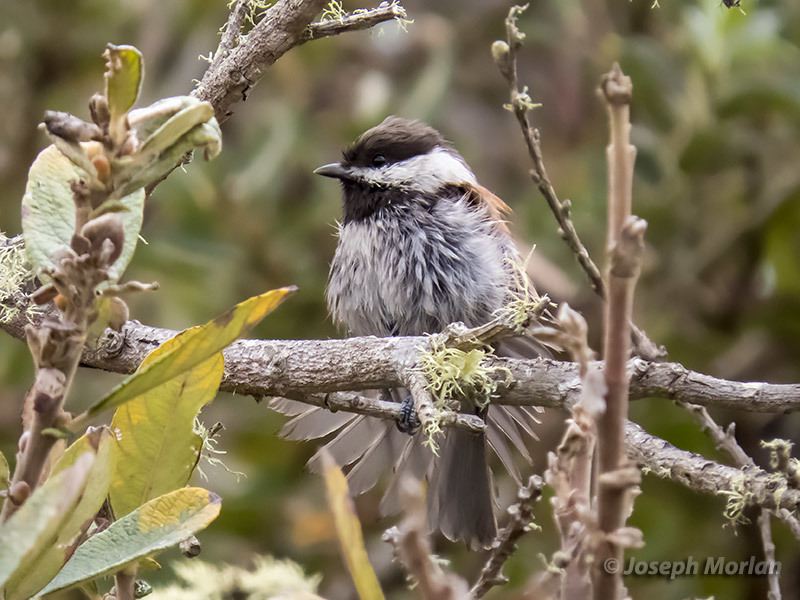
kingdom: Animalia
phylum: Chordata
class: Aves
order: Passeriformes
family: Paridae
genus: Poecile
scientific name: Poecile rufescens
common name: Chestnut-backed chickadee
